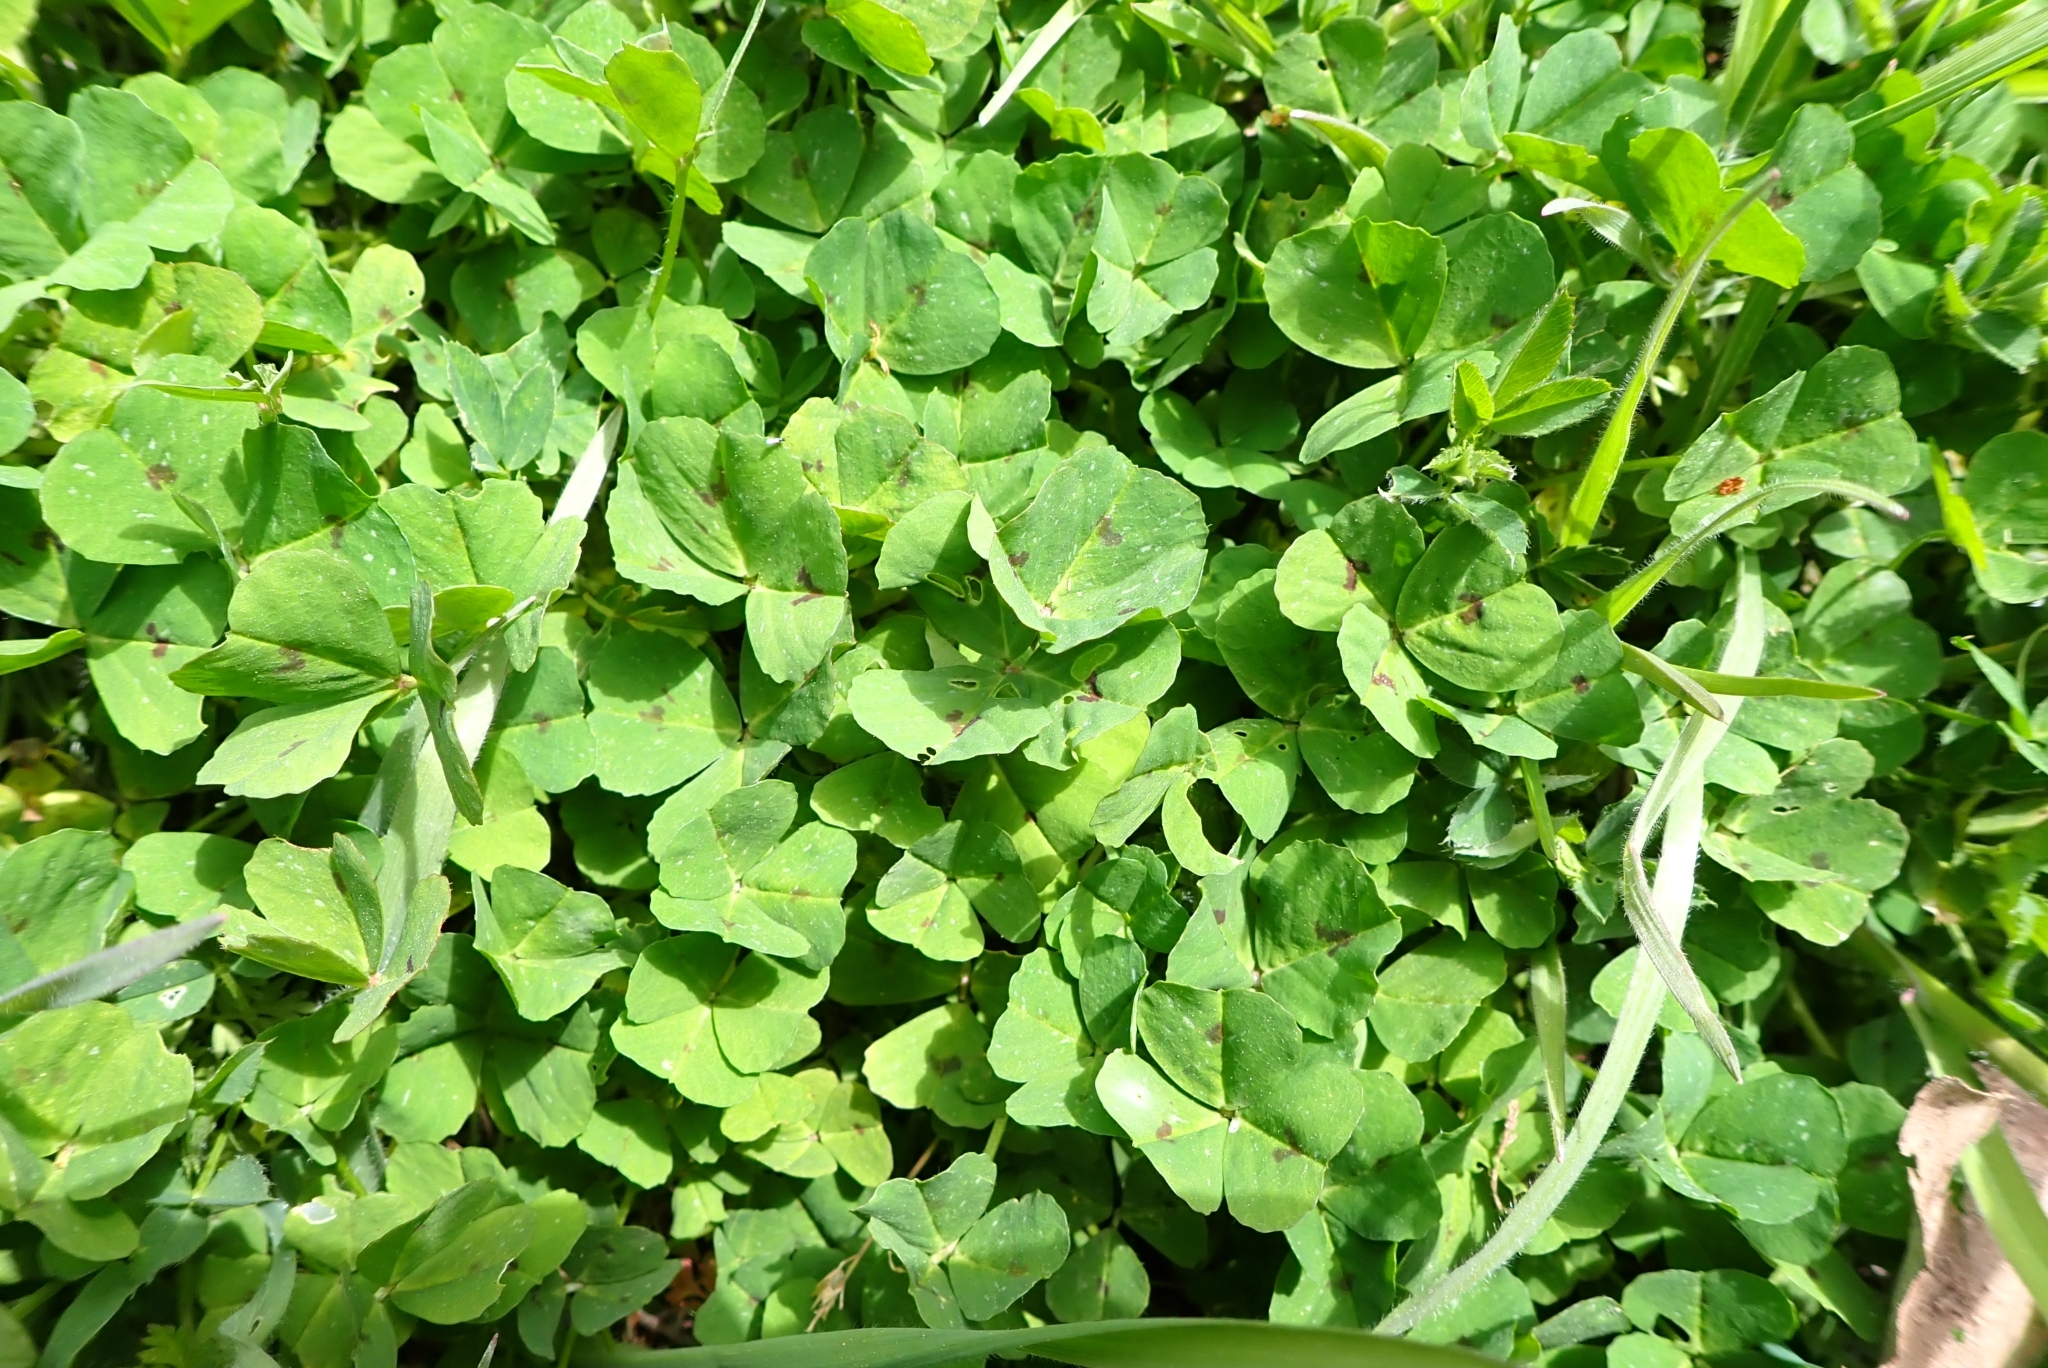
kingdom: Plantae
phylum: Tracheophyta
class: Magnoliopsida
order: Fabales
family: Fabaceae
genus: Medicago
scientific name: Medicago arabica
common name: Spotted medick
